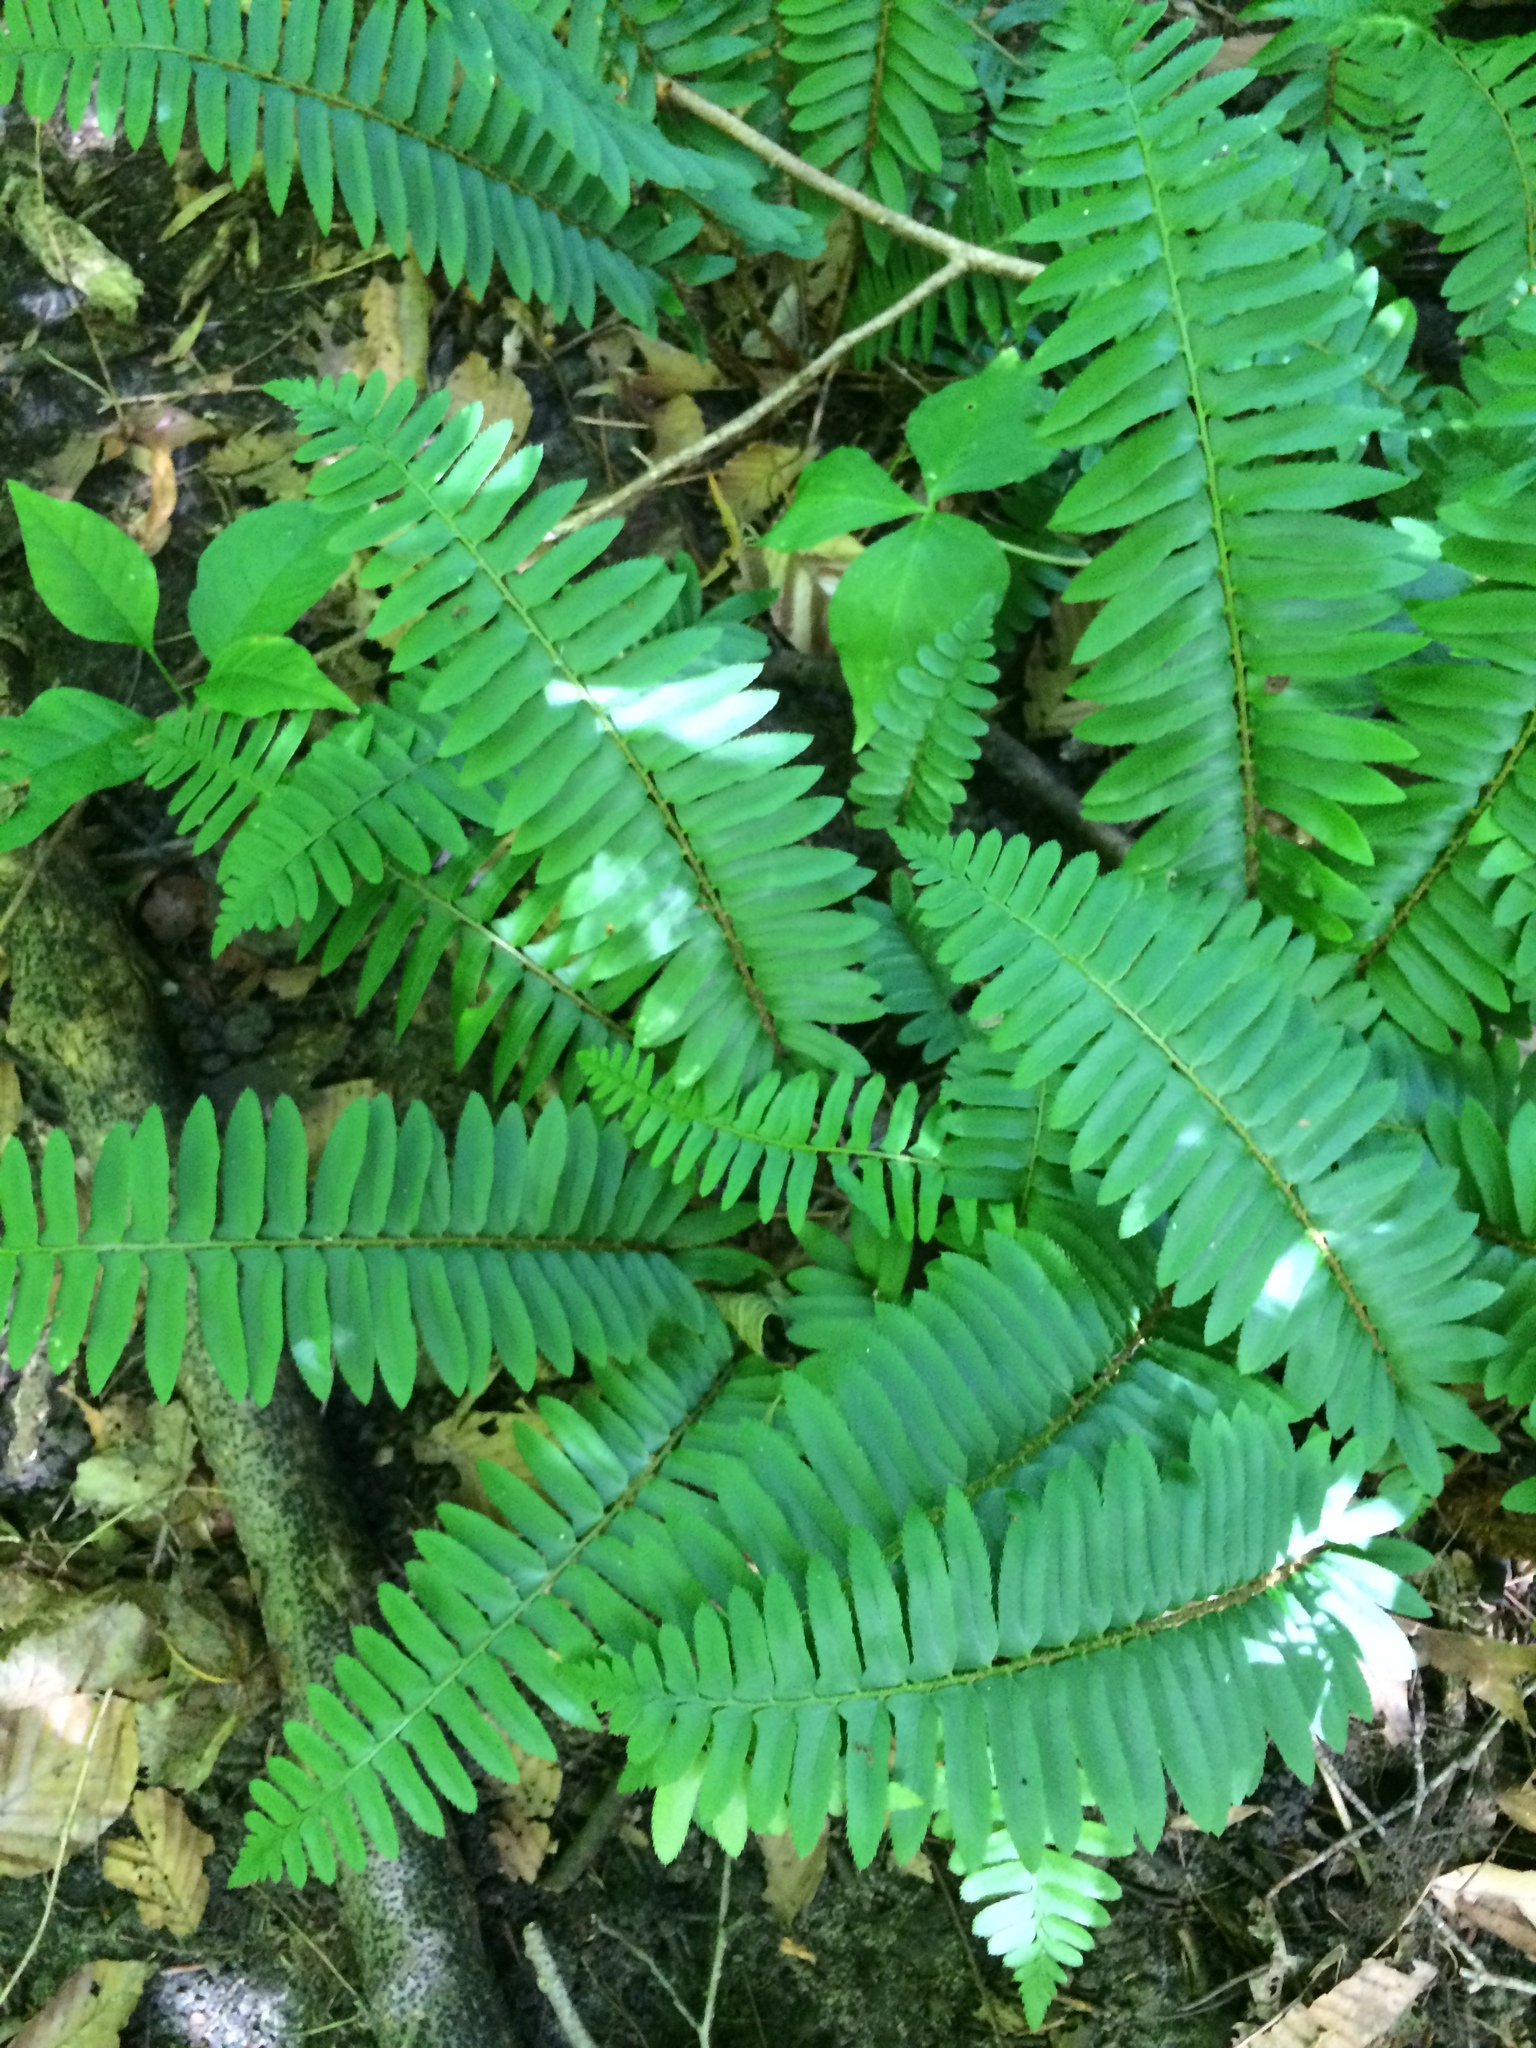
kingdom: Plantae
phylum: Tracheophyta
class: Polypodiopsida
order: Polypodiales
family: Dryopteridaceae
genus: Polystichum
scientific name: Polystichum acrostichoides
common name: Christmas fern
